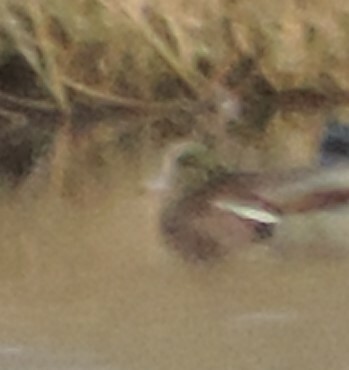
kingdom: Animalia
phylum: Chordata
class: Aves
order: Anseriformes
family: Anatidae
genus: Mareca
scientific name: Mareca americana
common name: American wigeon
